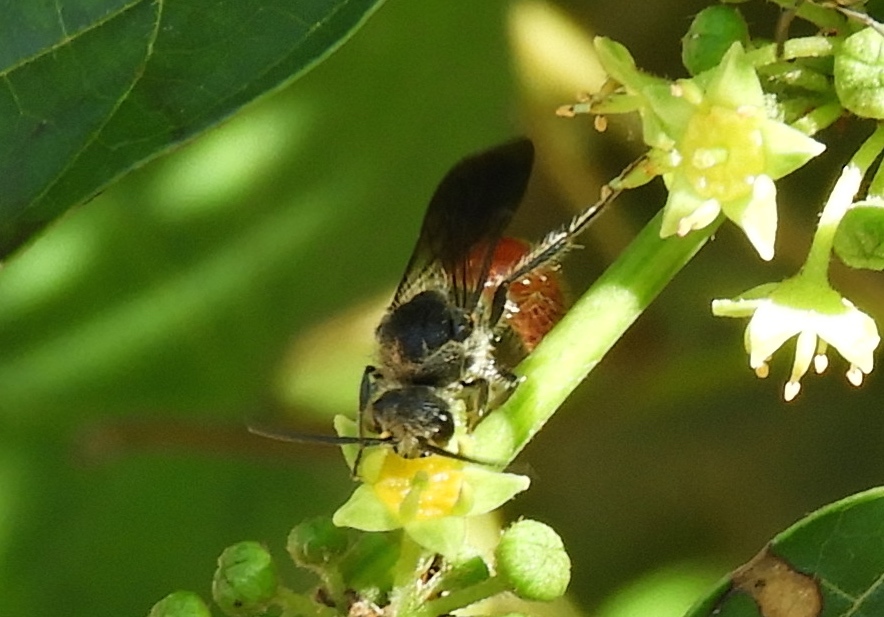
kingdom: Animalia
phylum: Arthropoda
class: Insecta
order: Hymenoptera
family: Mutillidae
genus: Timulla
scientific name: Timulla
